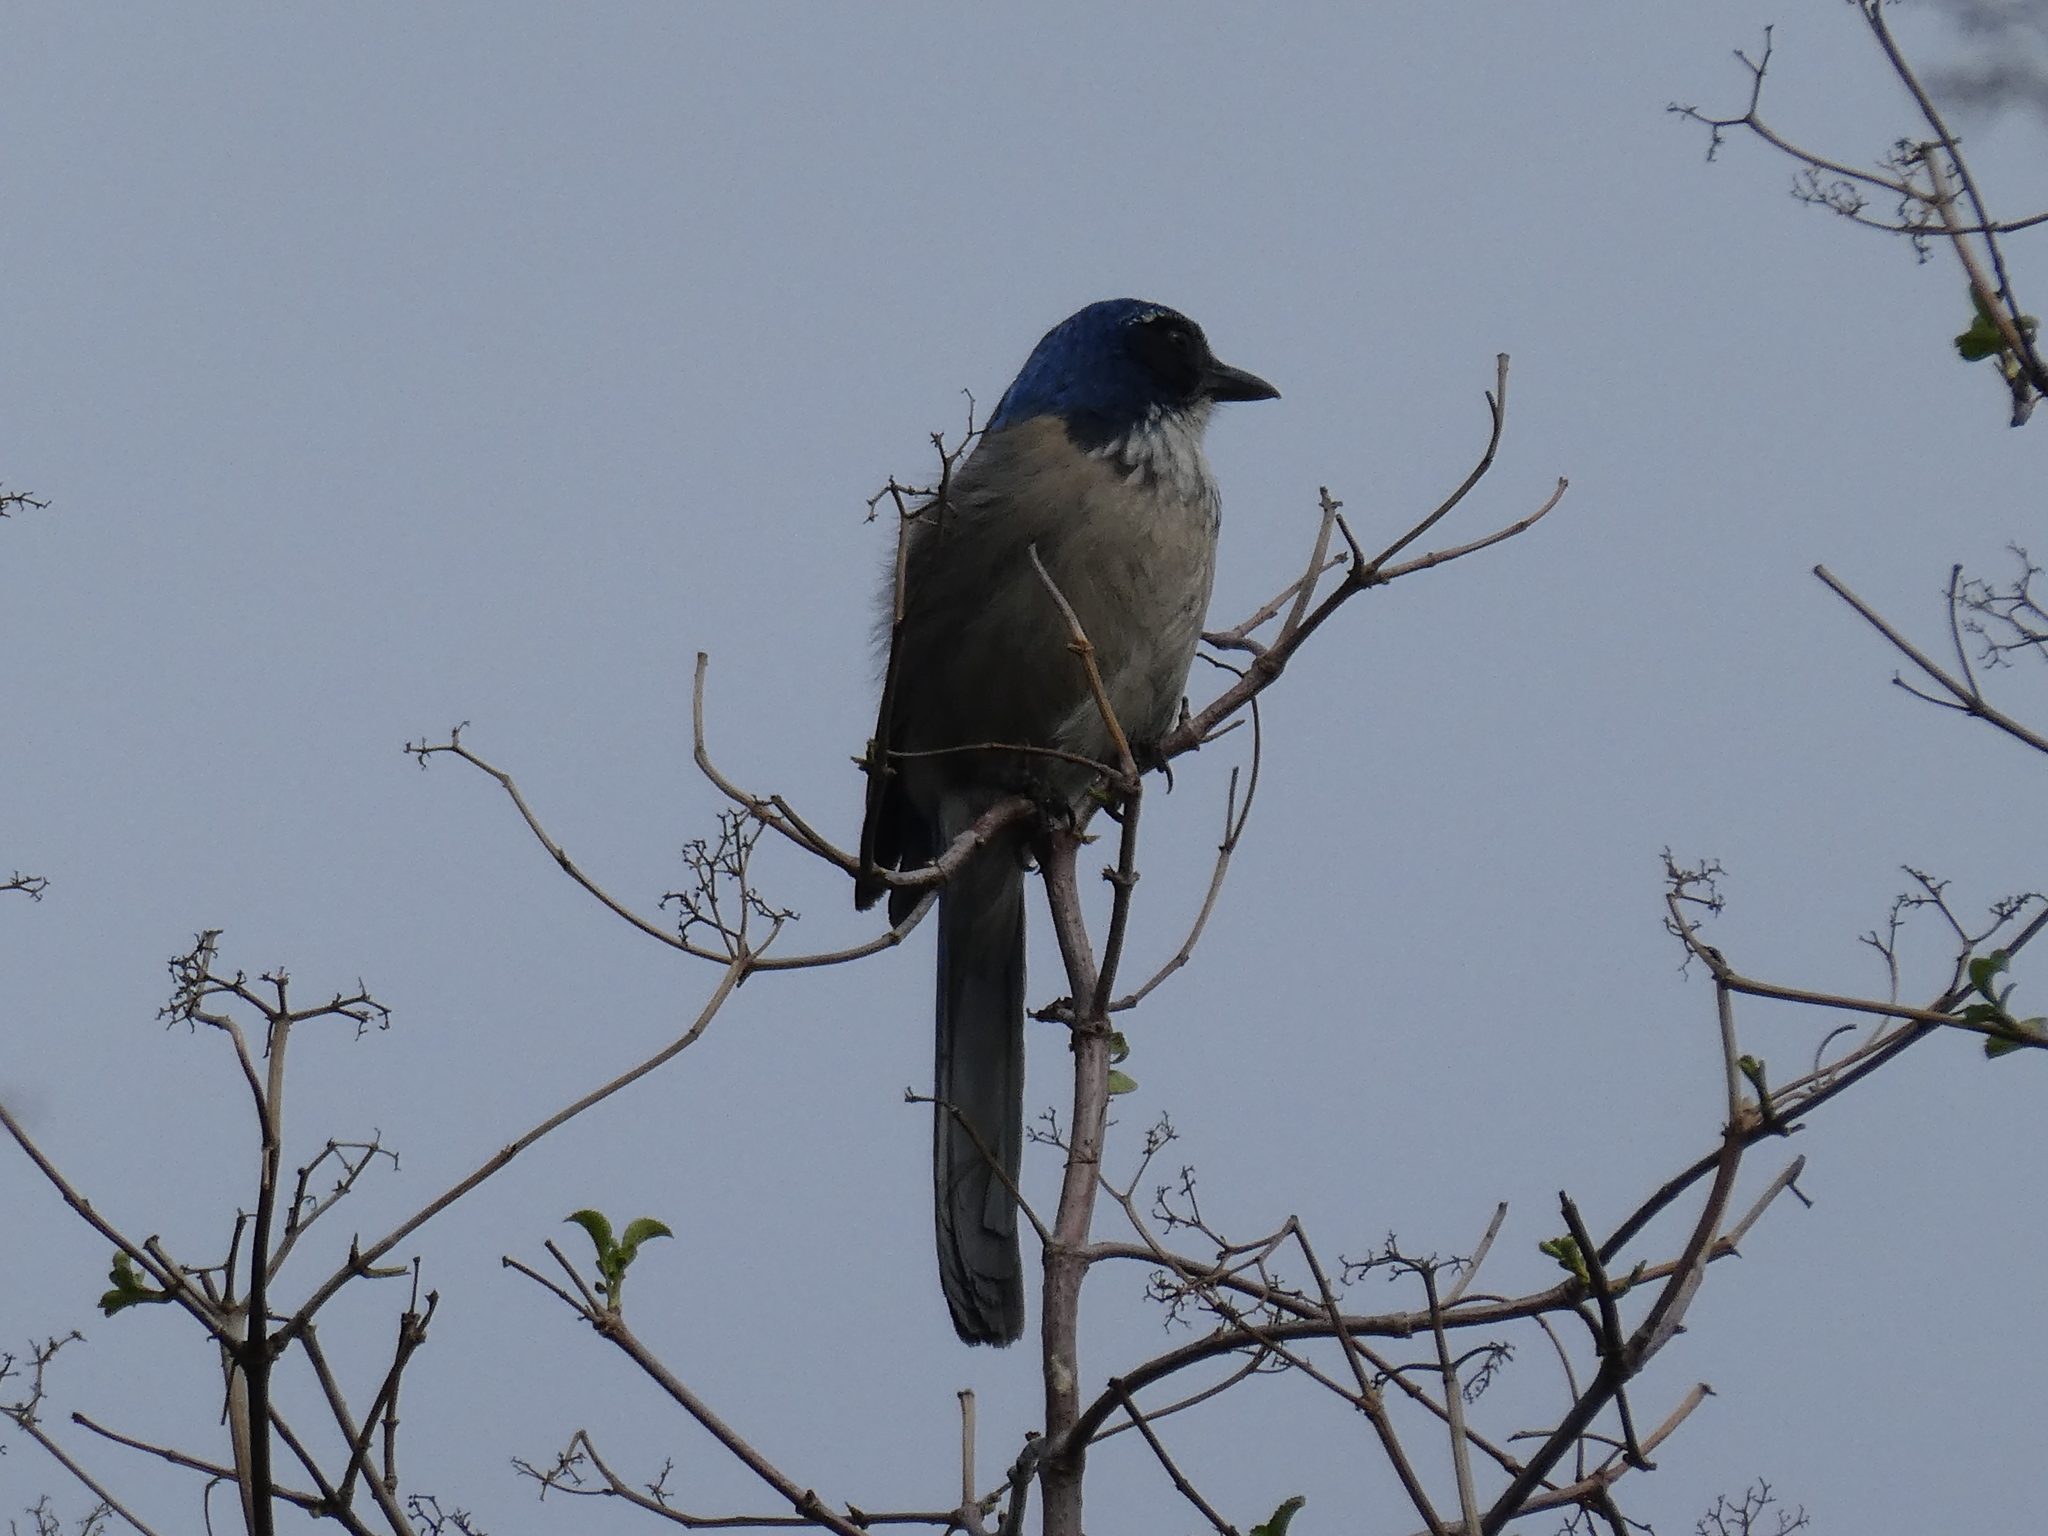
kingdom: Animalia
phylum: Chordata
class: Aves
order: Passeriformes
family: Corvidae
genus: Aphelocoma
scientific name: Aphelocoma californica
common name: California scrub-jay
